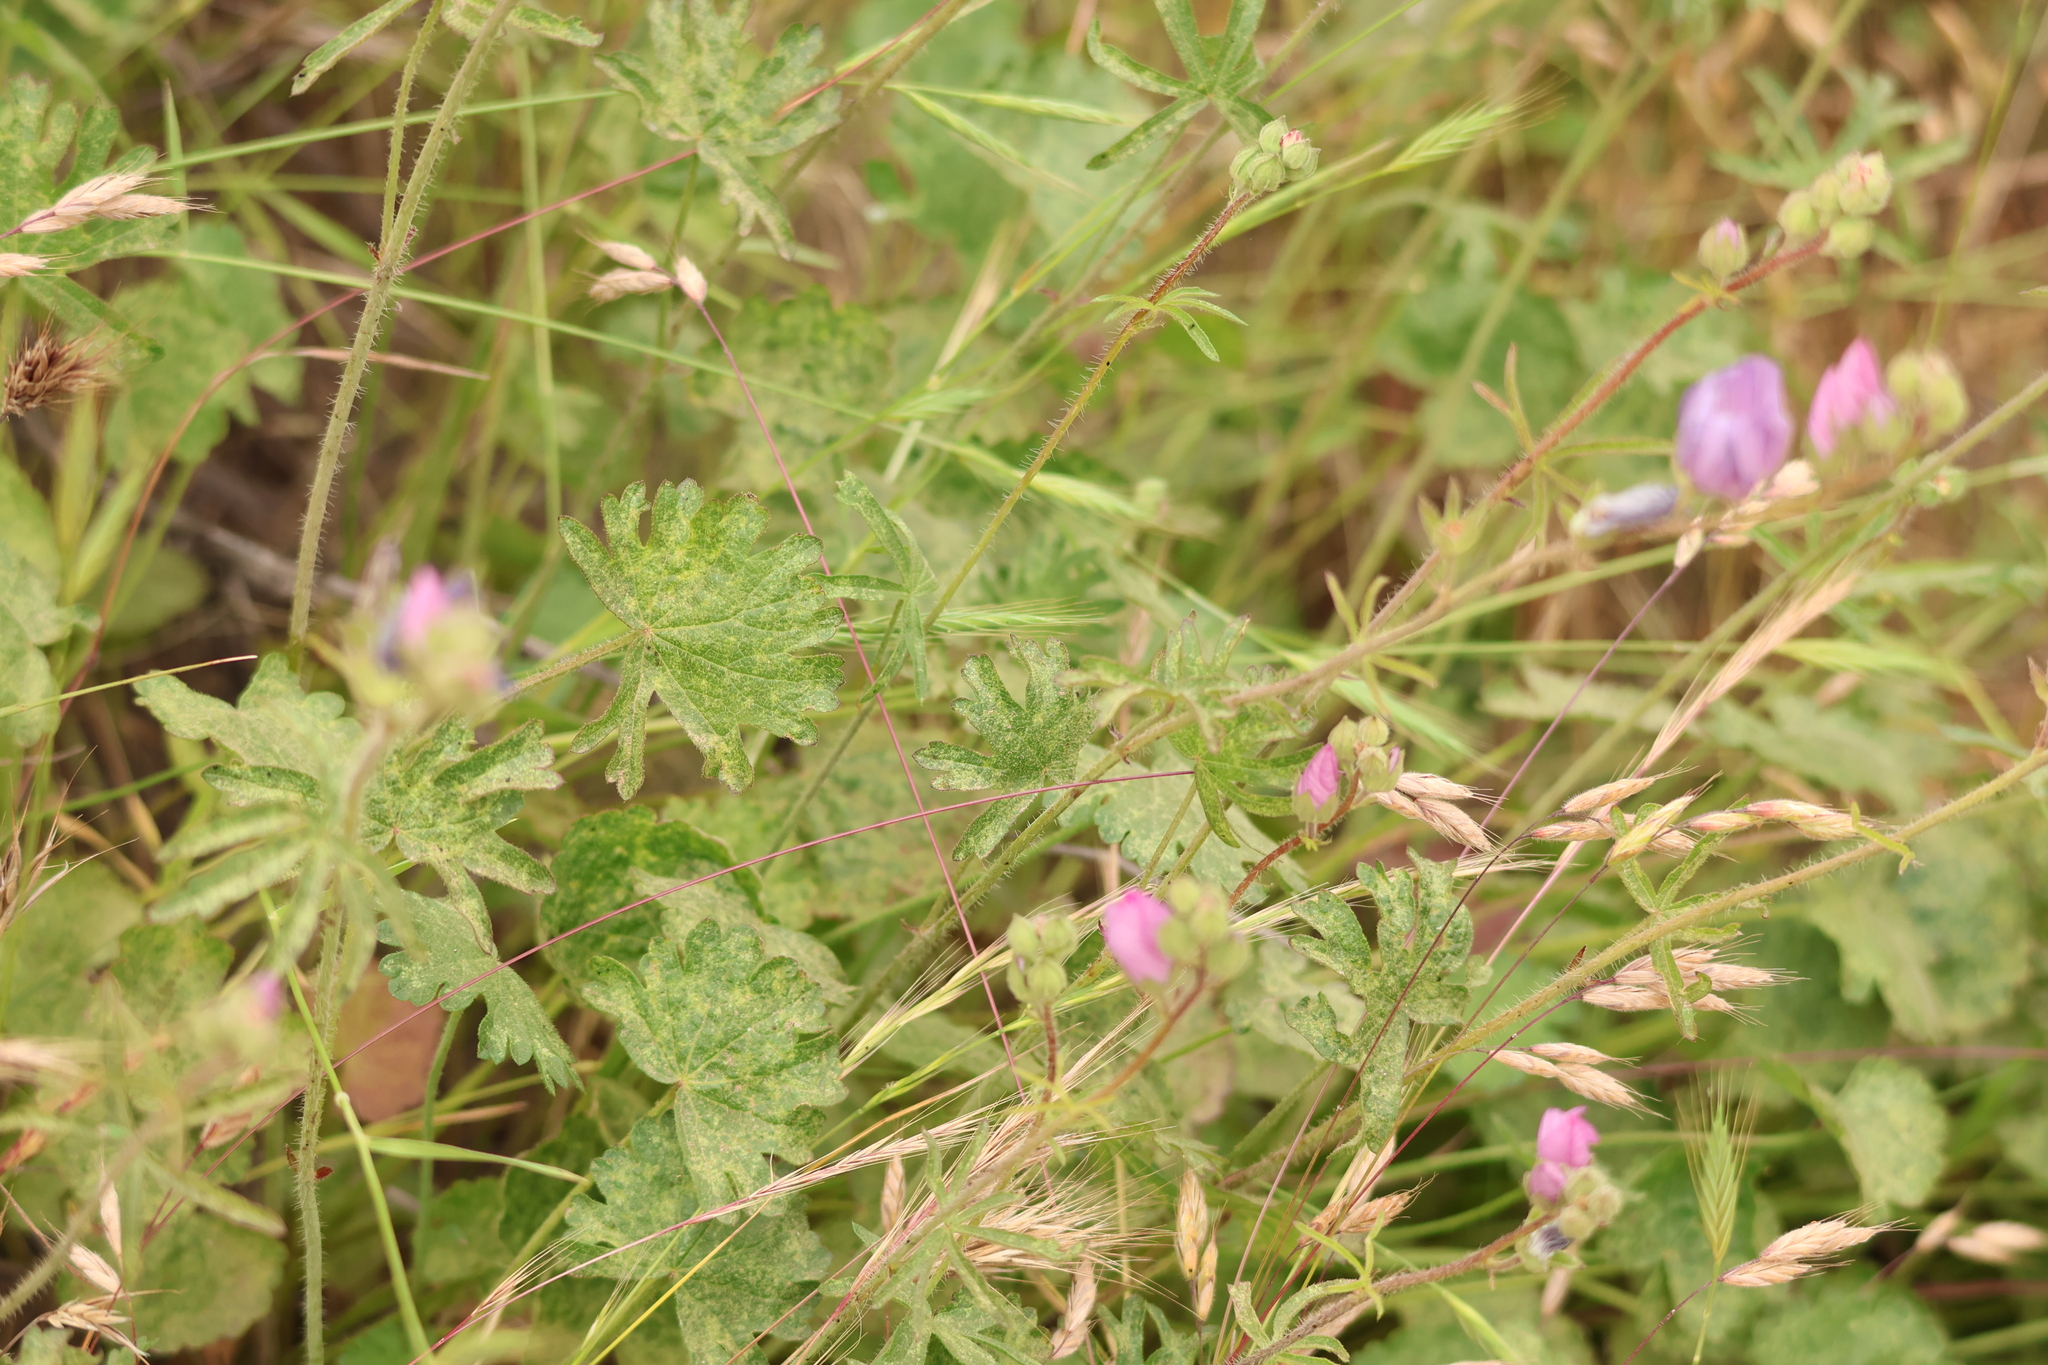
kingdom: Plantae
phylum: Tracheophyta
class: Magnoliopsida
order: Malvales
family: Malvaceae
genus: Sidalcea
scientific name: Sidalcea sparsifolia
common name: Southern checkerbloom
